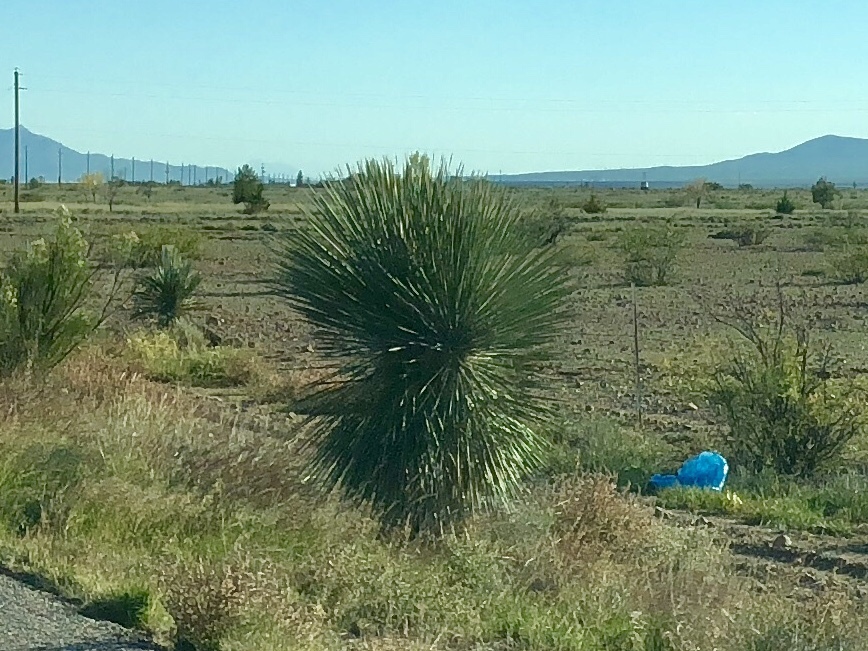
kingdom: Plantae
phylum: Tracheophyta
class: Liliopsida
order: Asparagales
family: Asparagaceae
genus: Yucca
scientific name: Yucca elata
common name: Palmella
